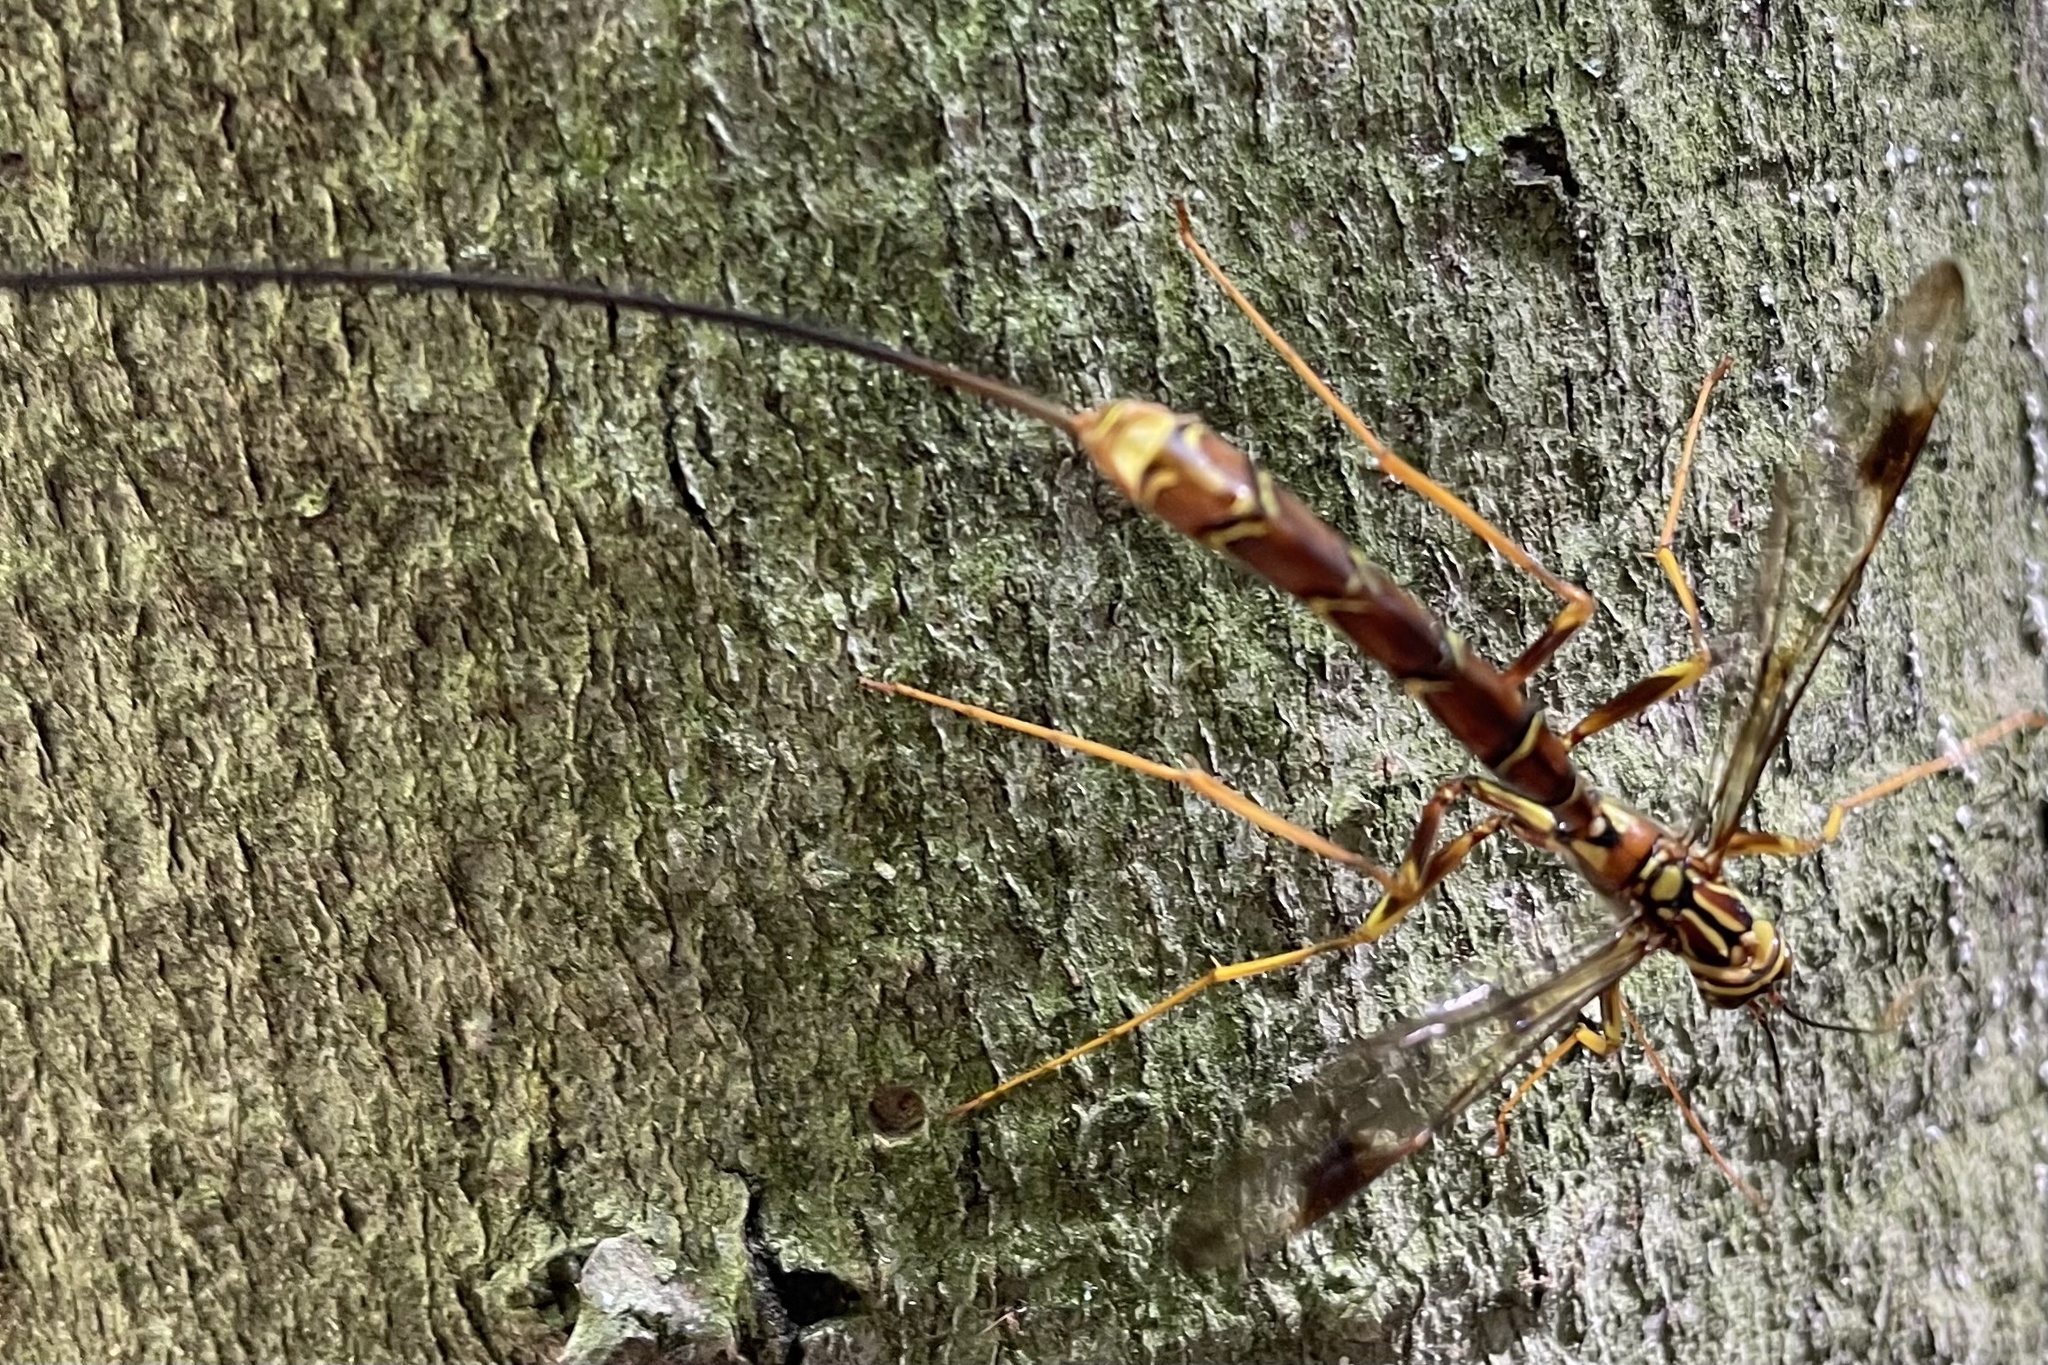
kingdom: Animalia
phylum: Arthropoda
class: Insecta
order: Hymenoptera
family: Ichneumonidae
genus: Megarhyssa
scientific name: Megarhyssa macrura
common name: Long-tailed giant ichneumonid wasp
